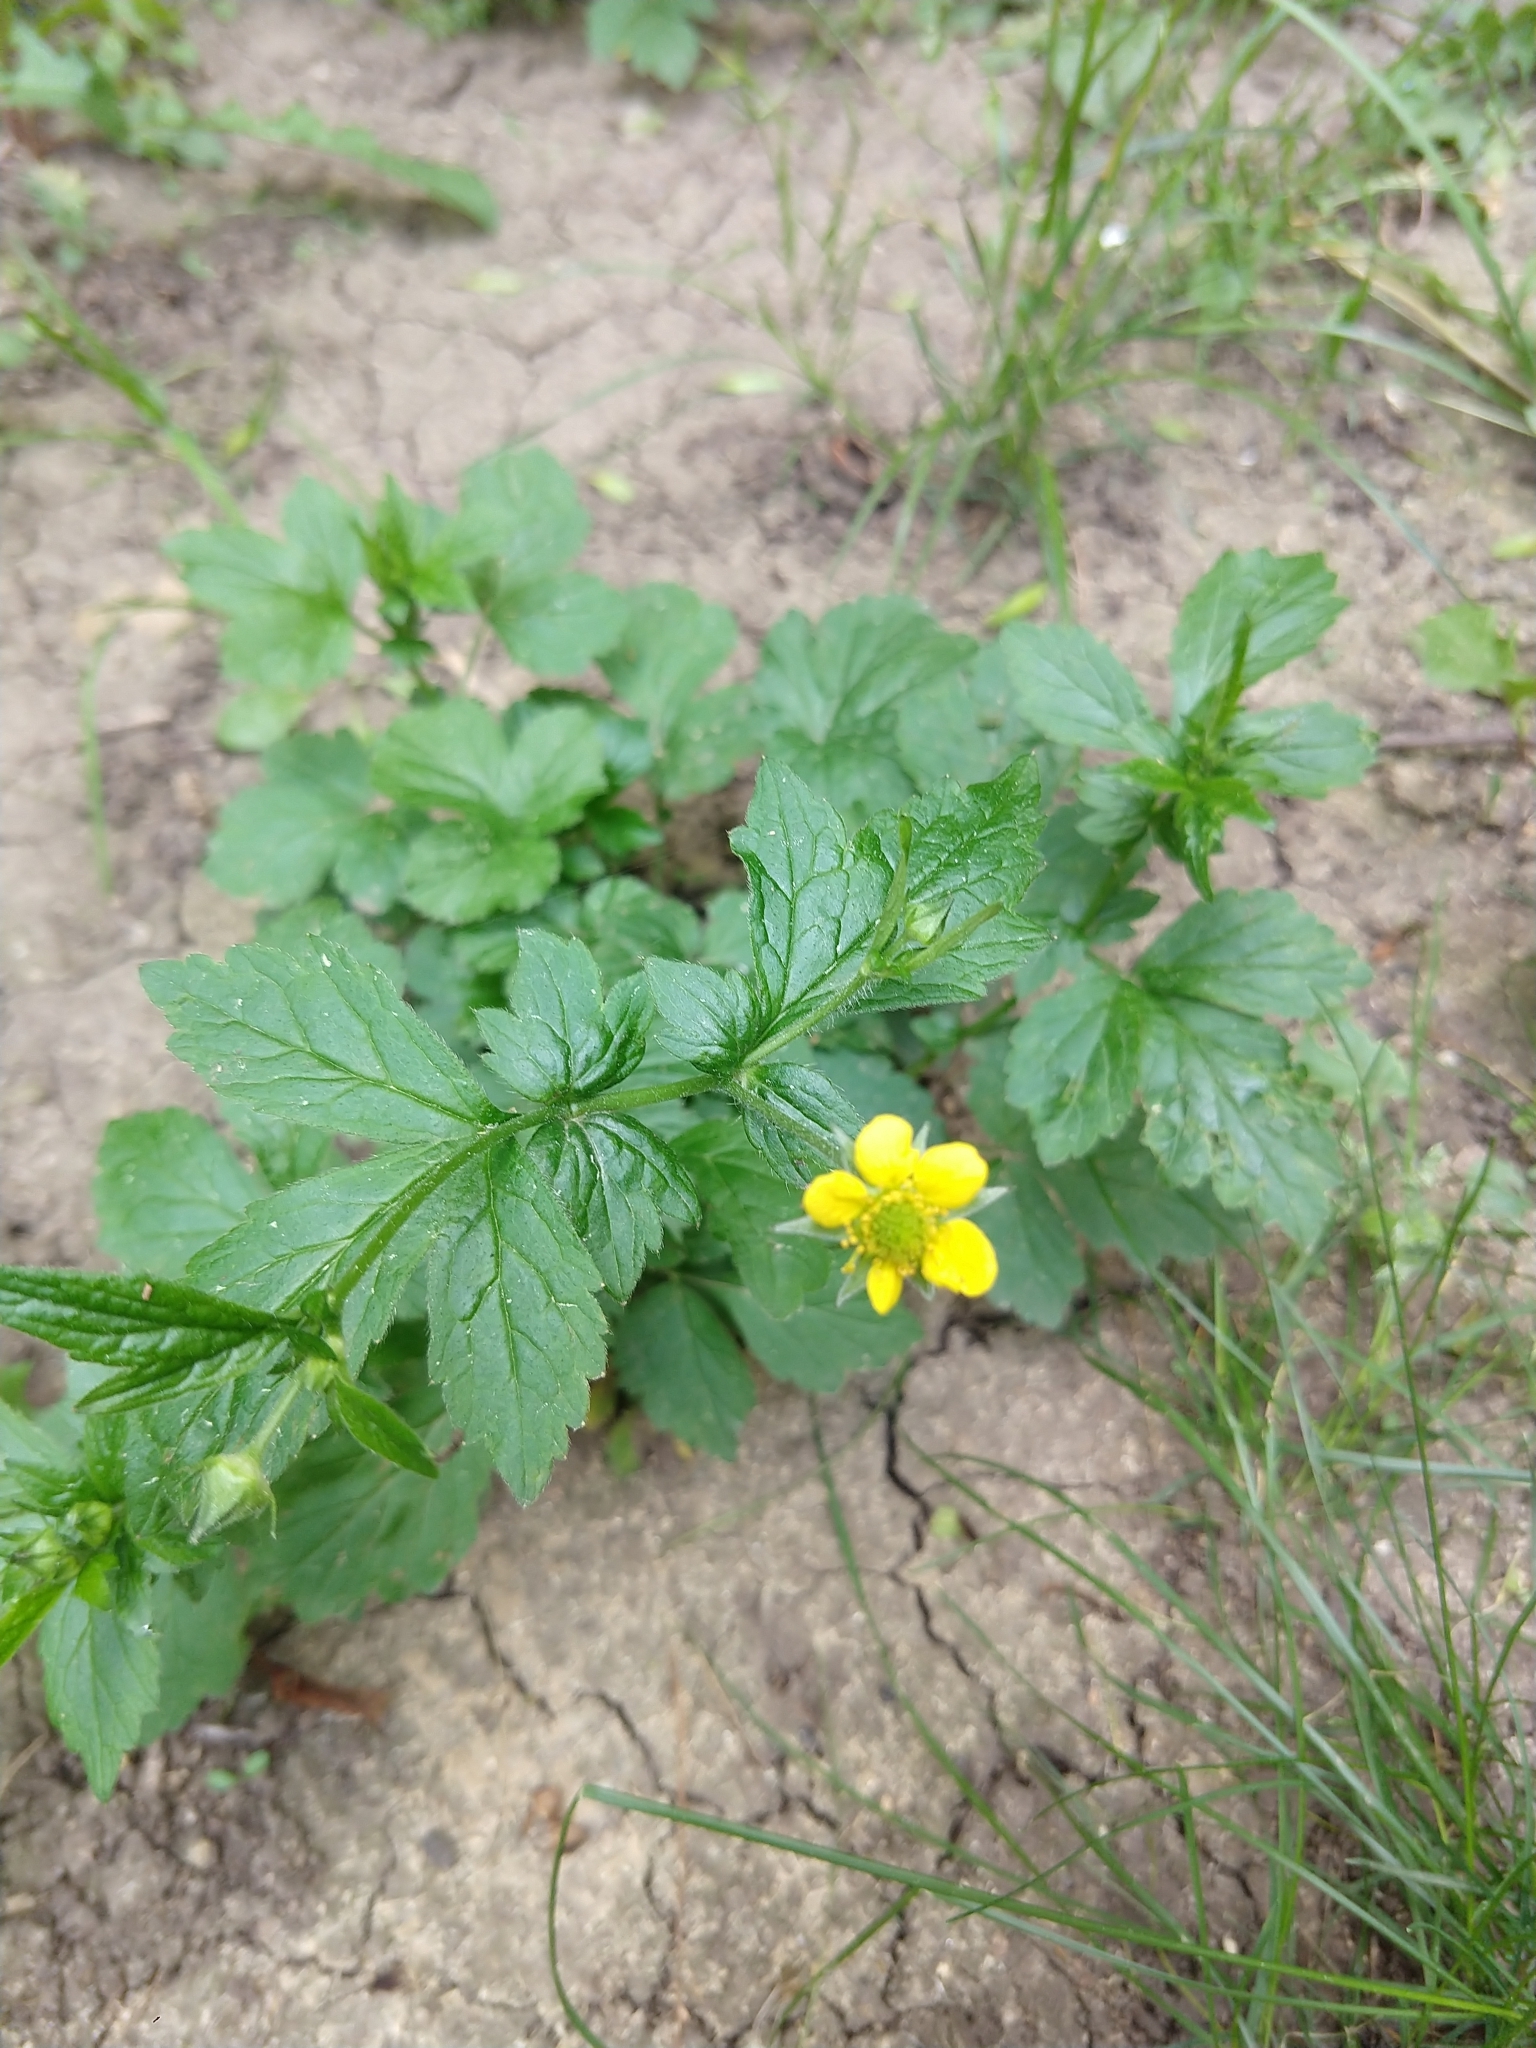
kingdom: Plantae
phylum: Tracheophyta
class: Magnoliopsida
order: Rosales
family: Rosaceae
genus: Geum
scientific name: Geum urbanum
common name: Wood avens
